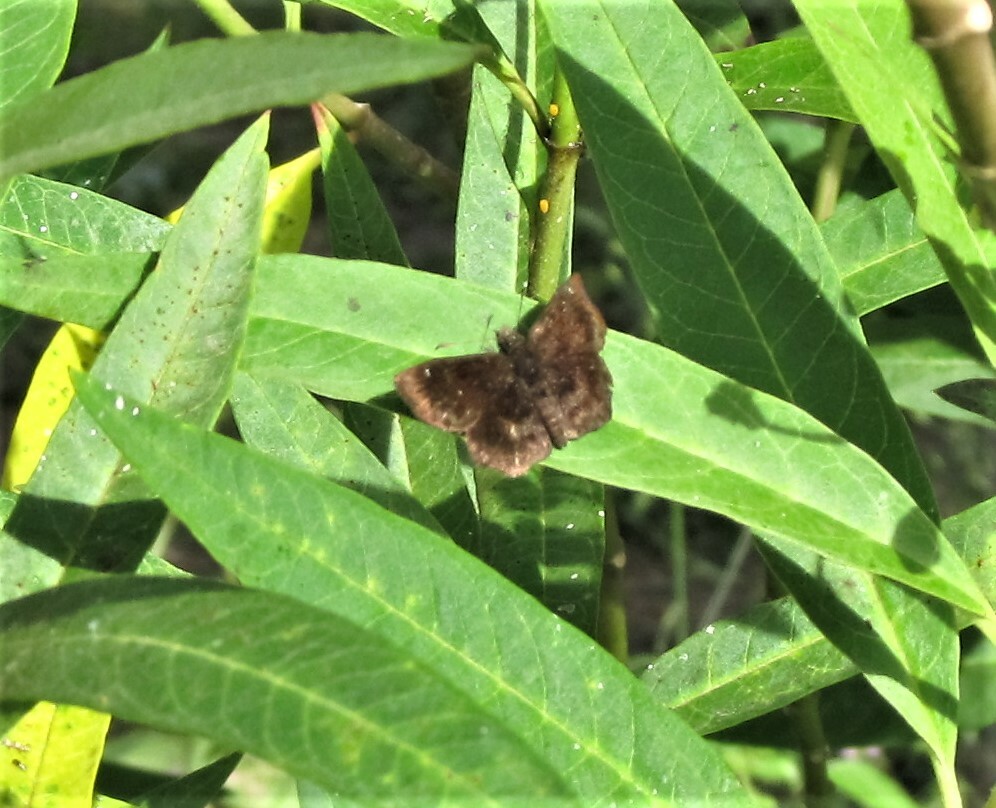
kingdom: Animalia
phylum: Arthropoda
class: Insecta
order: Lepidoptera
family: Hesperiidae
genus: Staphylus
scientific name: Staphylus mazans
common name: Mazans scallopwing
